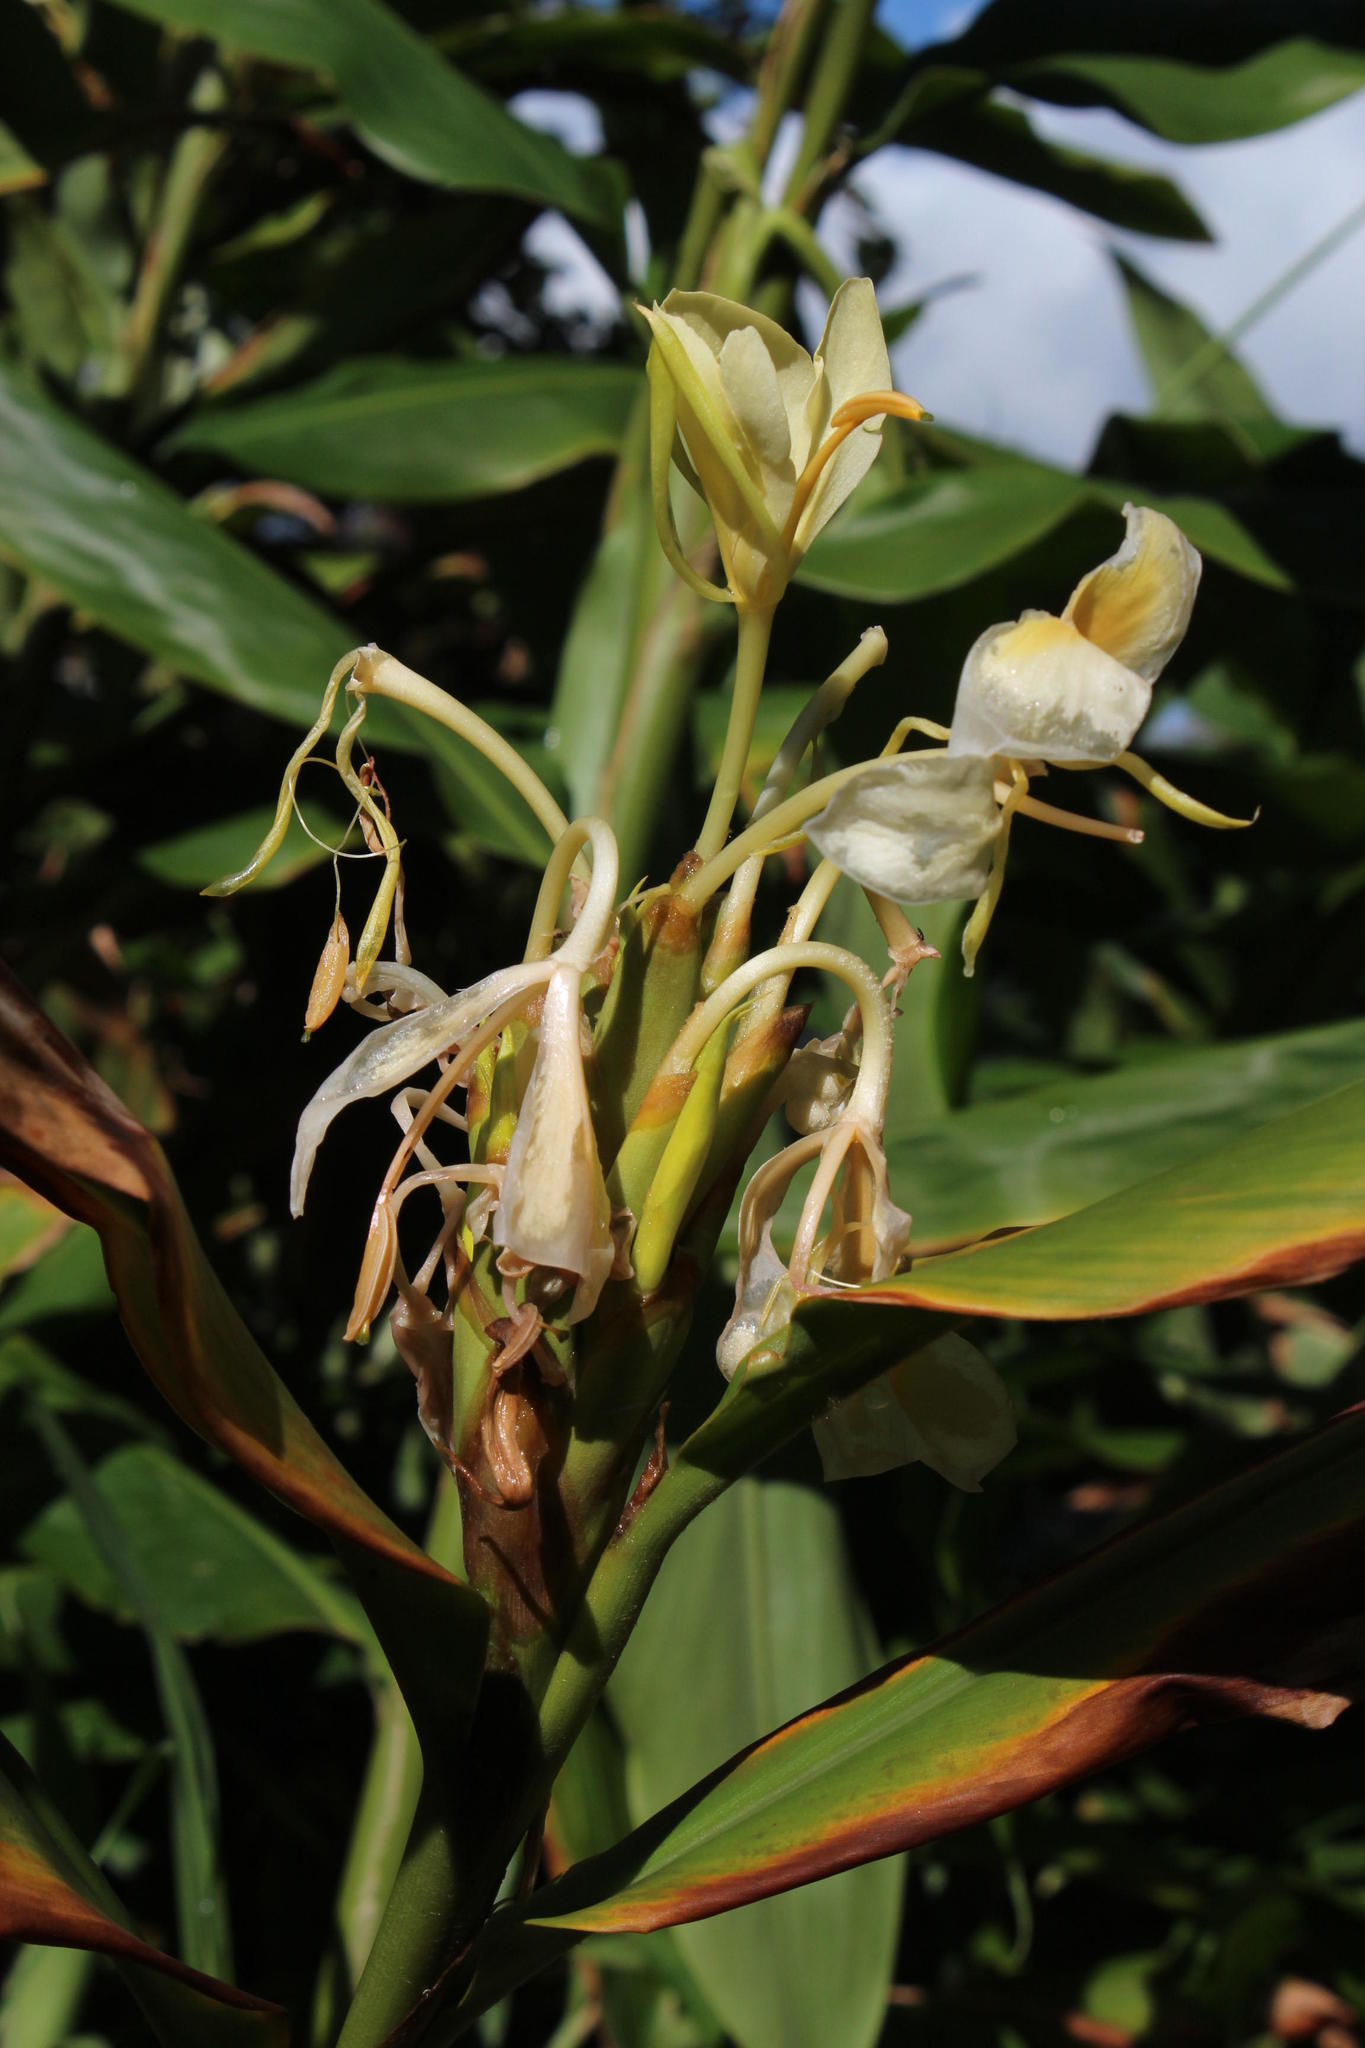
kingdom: Plantae
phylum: Tracheophyta
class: Liliopsida
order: Zingiberales
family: Zingiberaceae
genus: Hedychium
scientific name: Hedychium flavescens
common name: Yellow ginger
